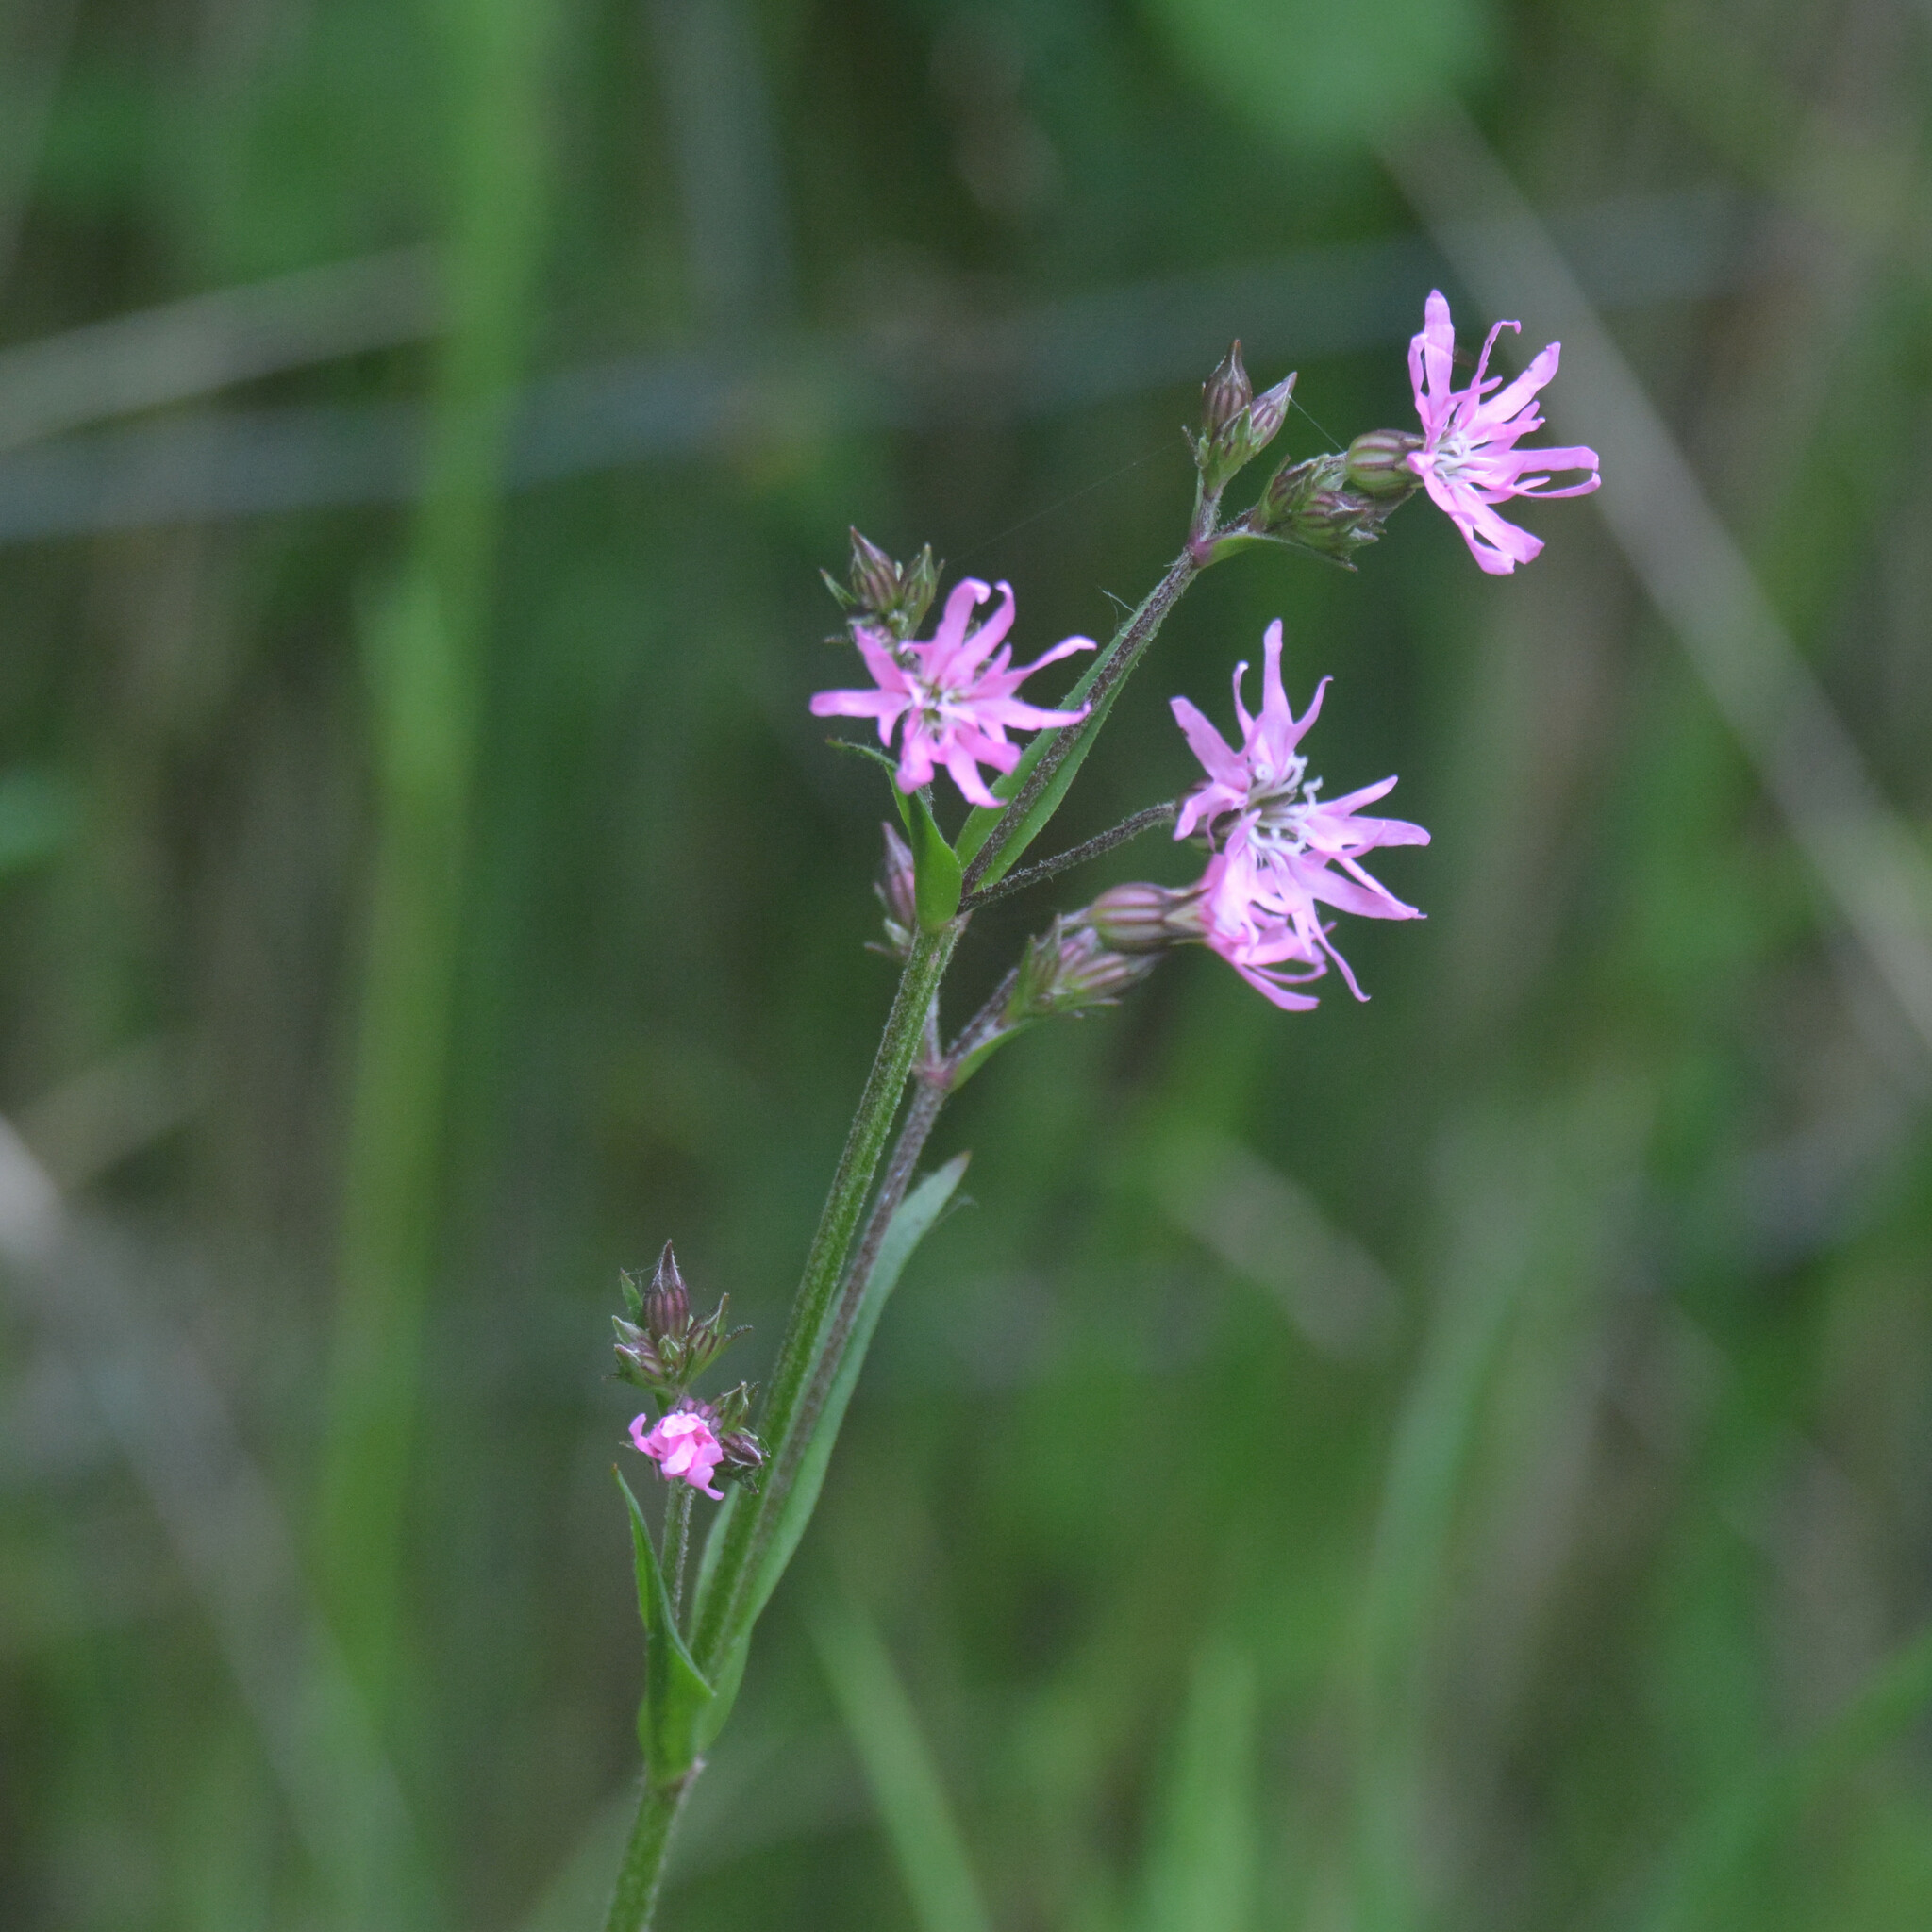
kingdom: Plantae
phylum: Tracheophyta
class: Magnoliopsida
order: Caryophyllales
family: Caryophyllaceae
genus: Silene
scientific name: Silene flos-cuculi
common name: Ragged-robin
